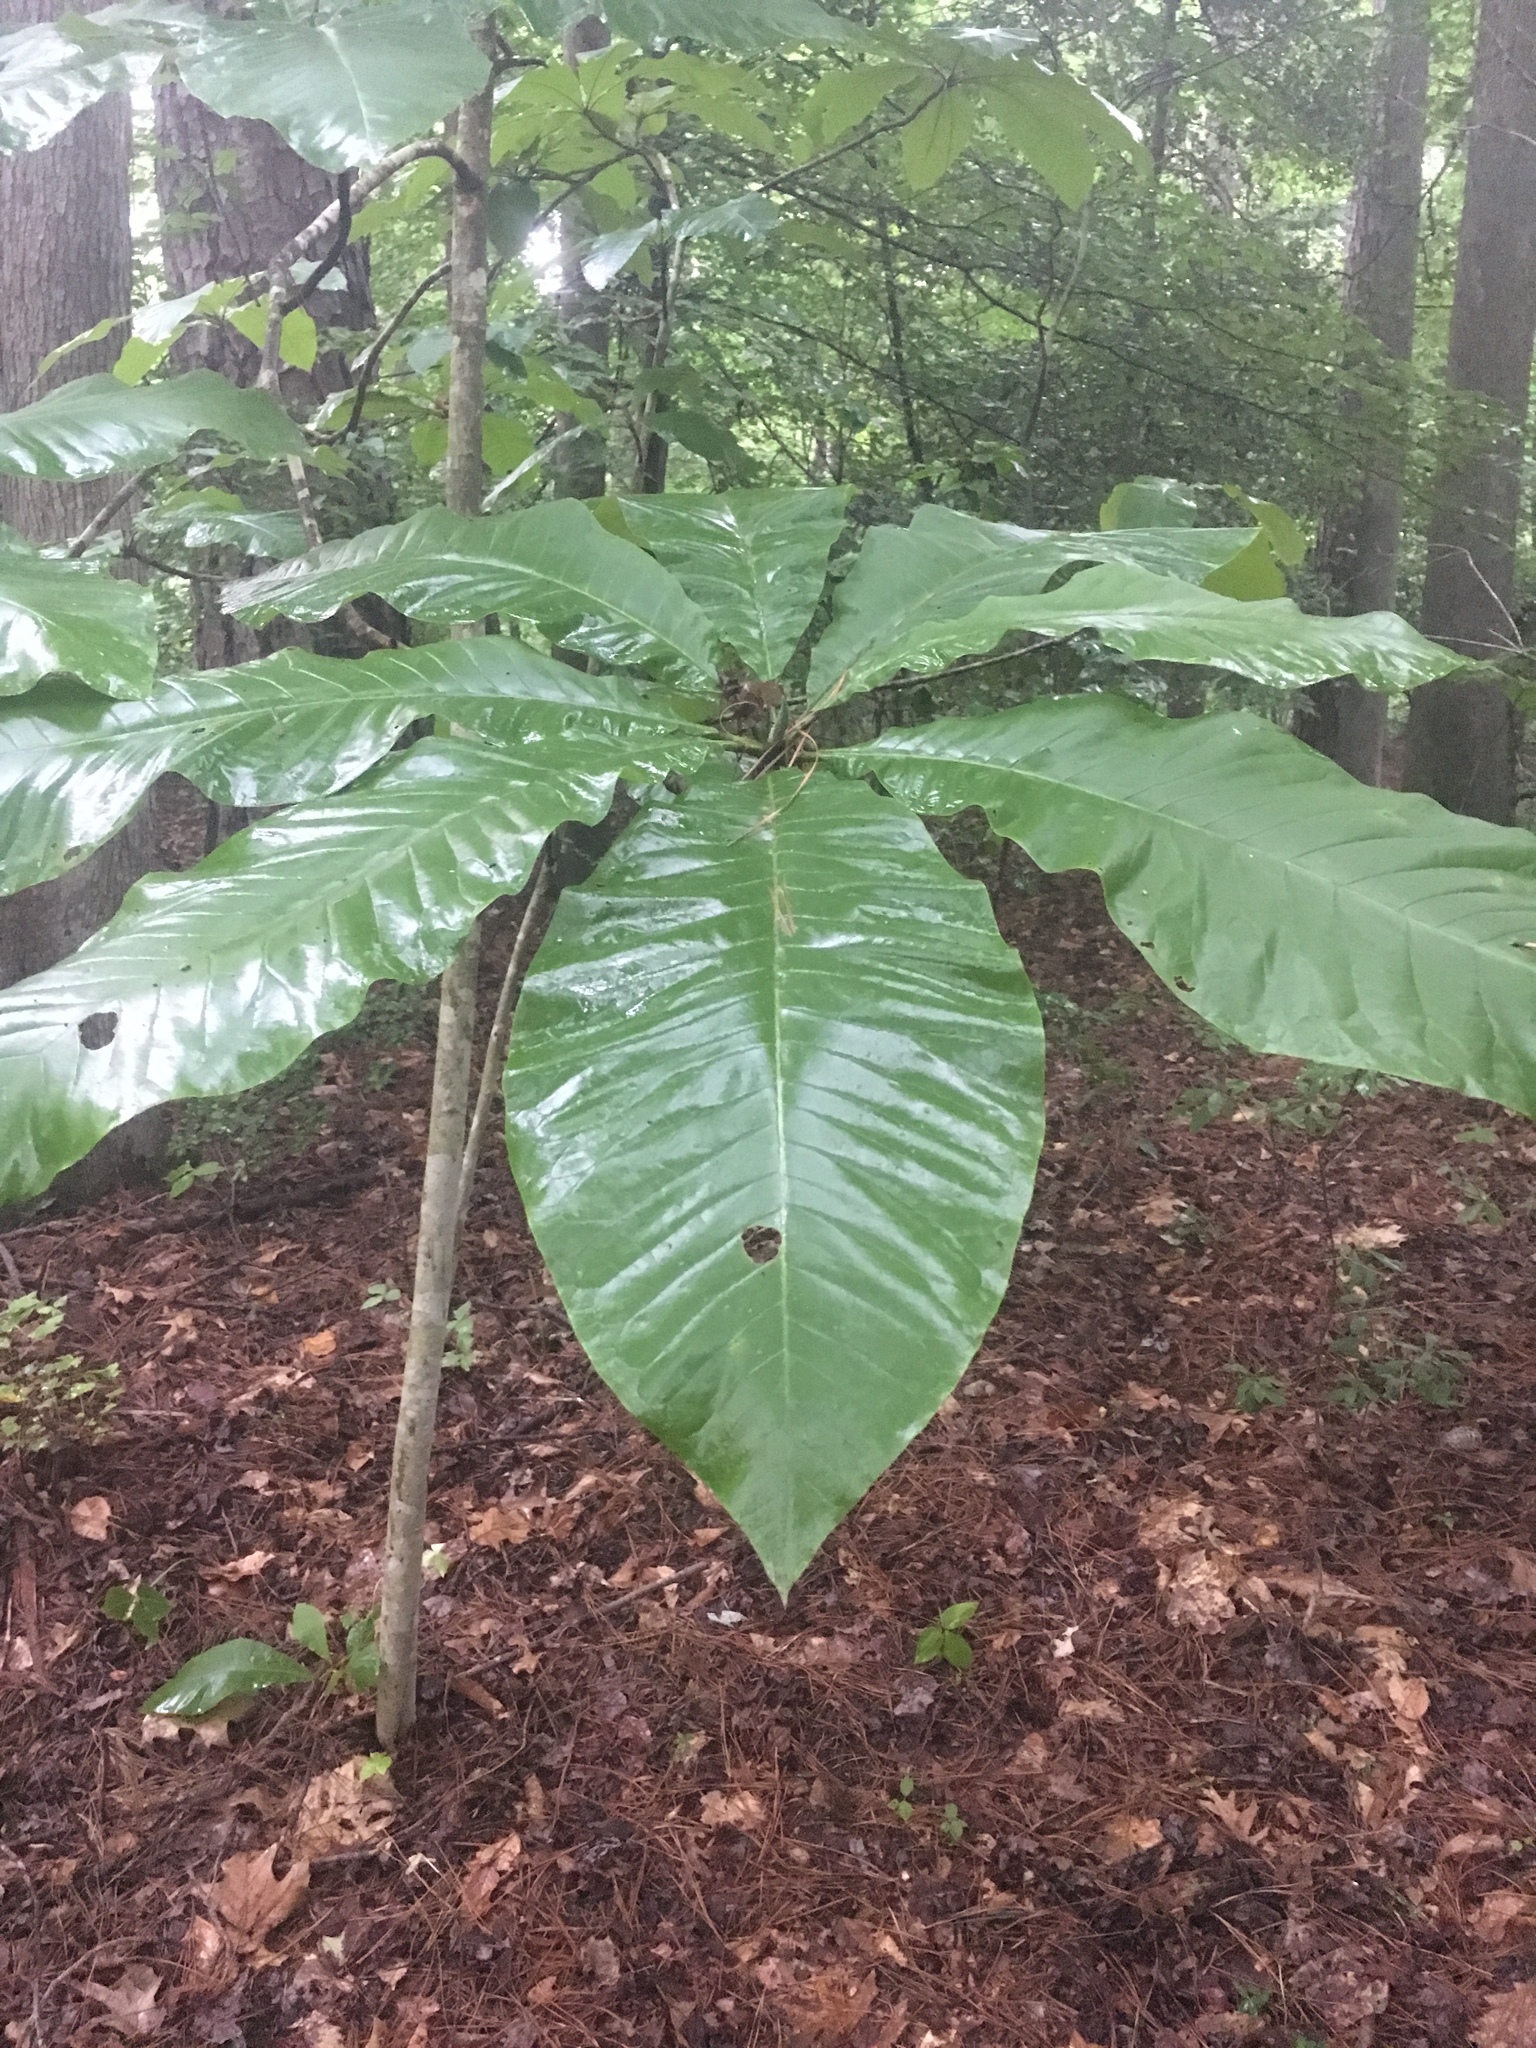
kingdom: Plantae
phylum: Tracheophyta
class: Magnoliopsida
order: Magnoliales
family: Magnoliaceae
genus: Magnolia
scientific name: Magnolia tripetala
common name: Umbrella magnolia
